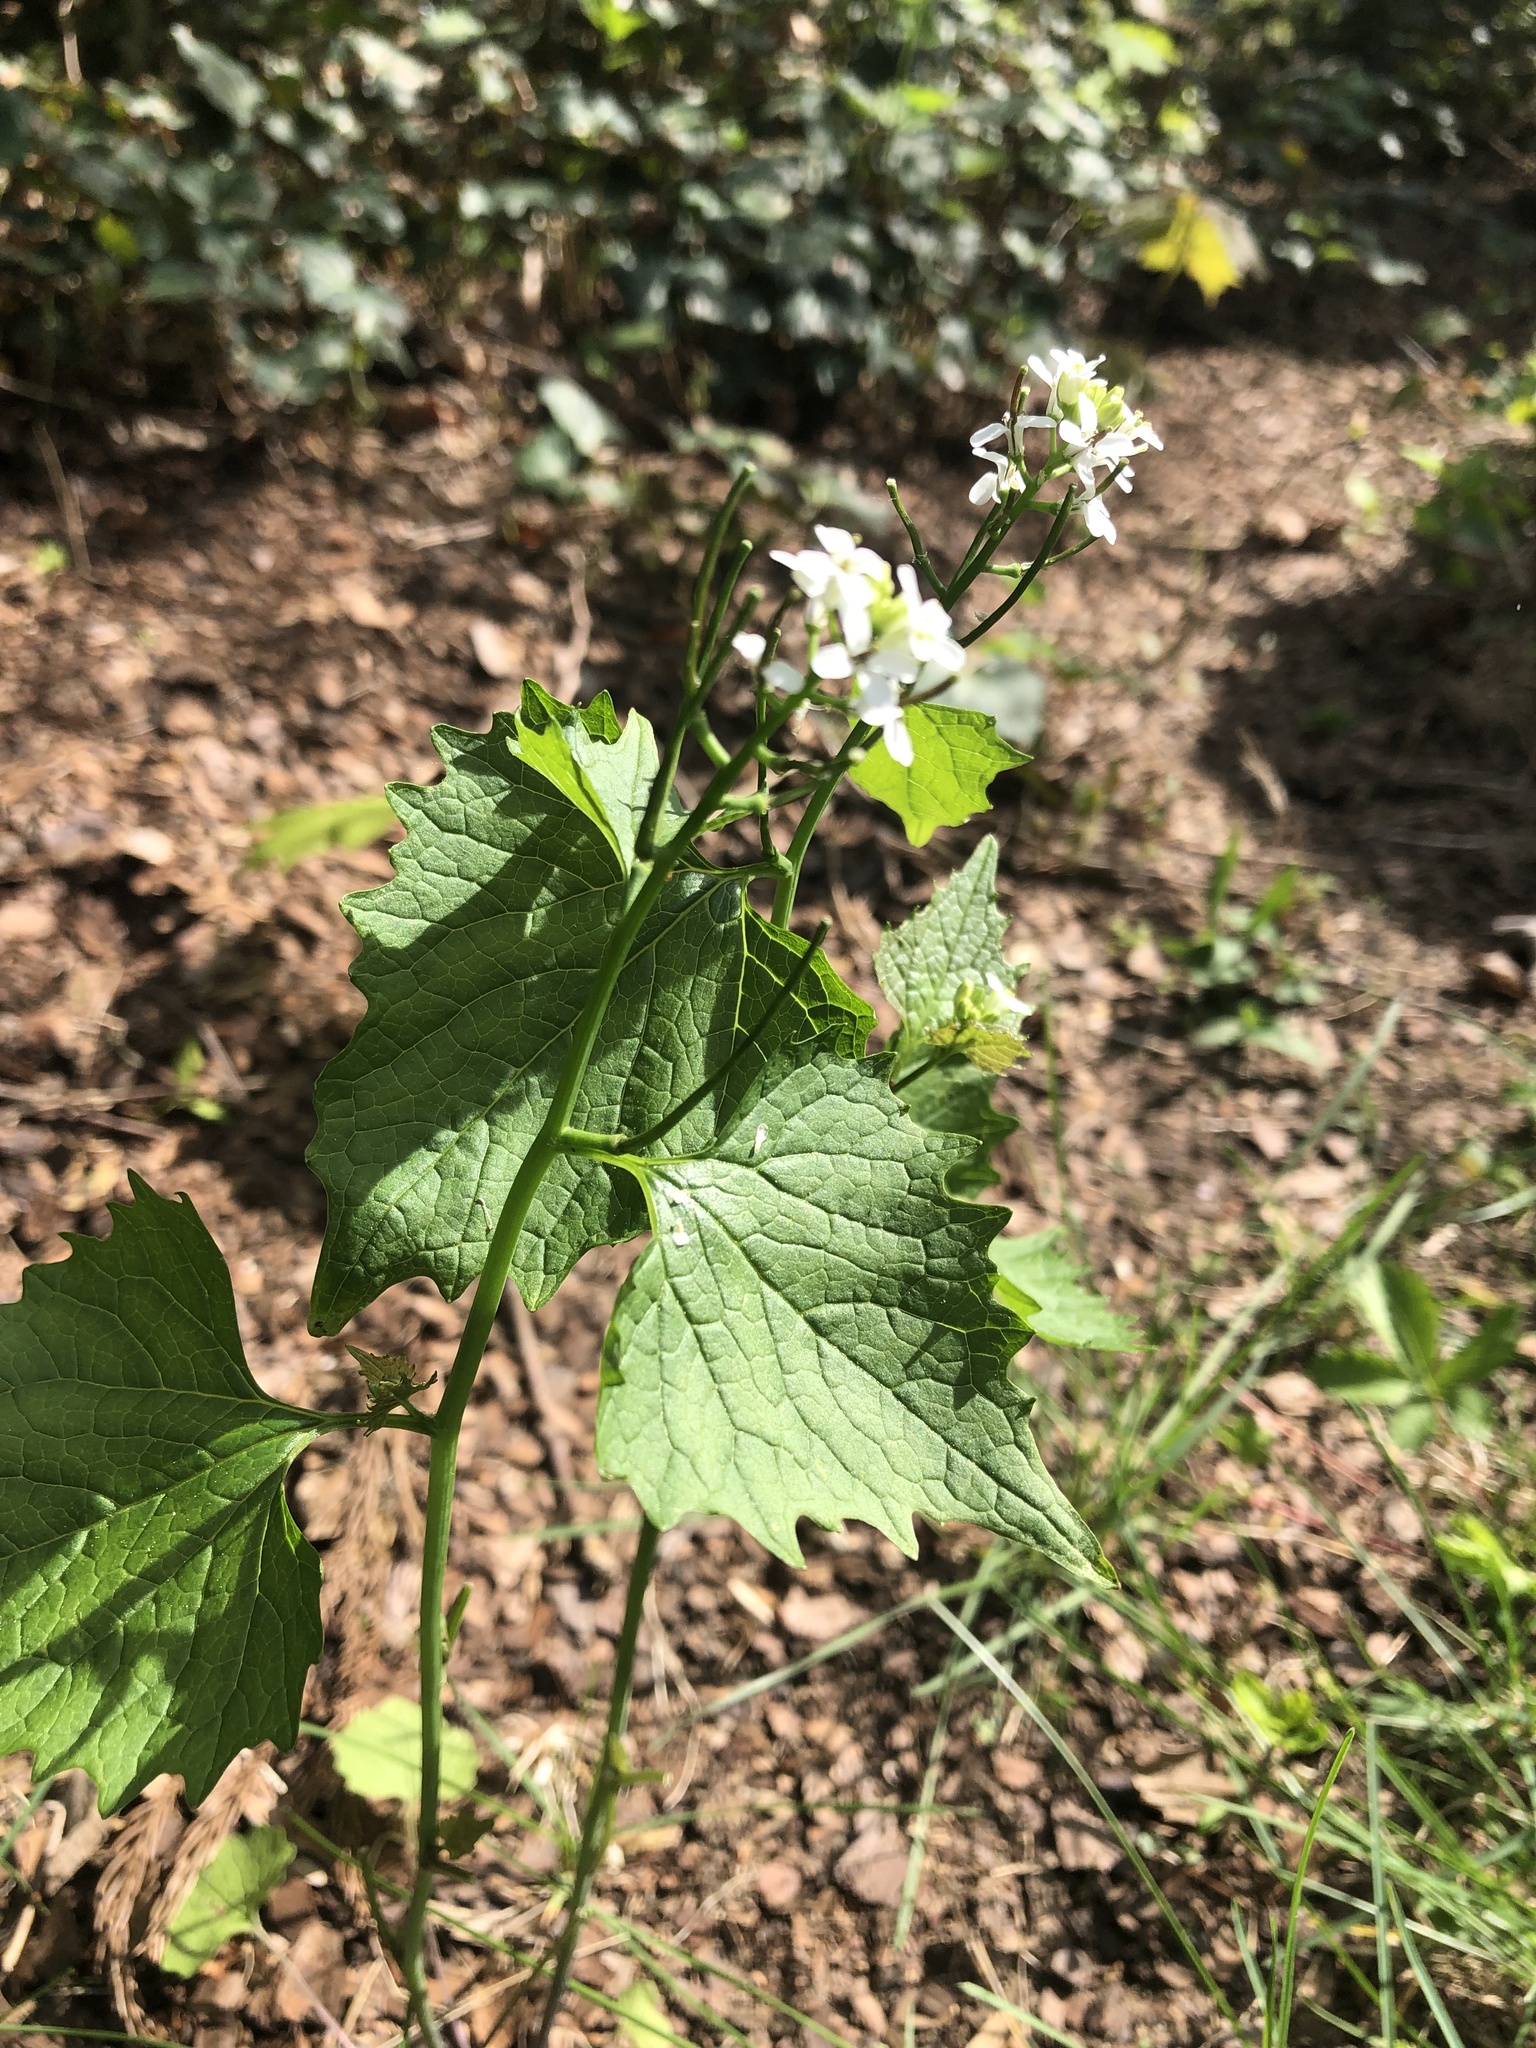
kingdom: Plantae
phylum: Tracheophyta
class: Magnoliopsida
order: Brassicales
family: Brassicaceae
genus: Alliaria
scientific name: Alliaria petiolata
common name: Garlic mustard
